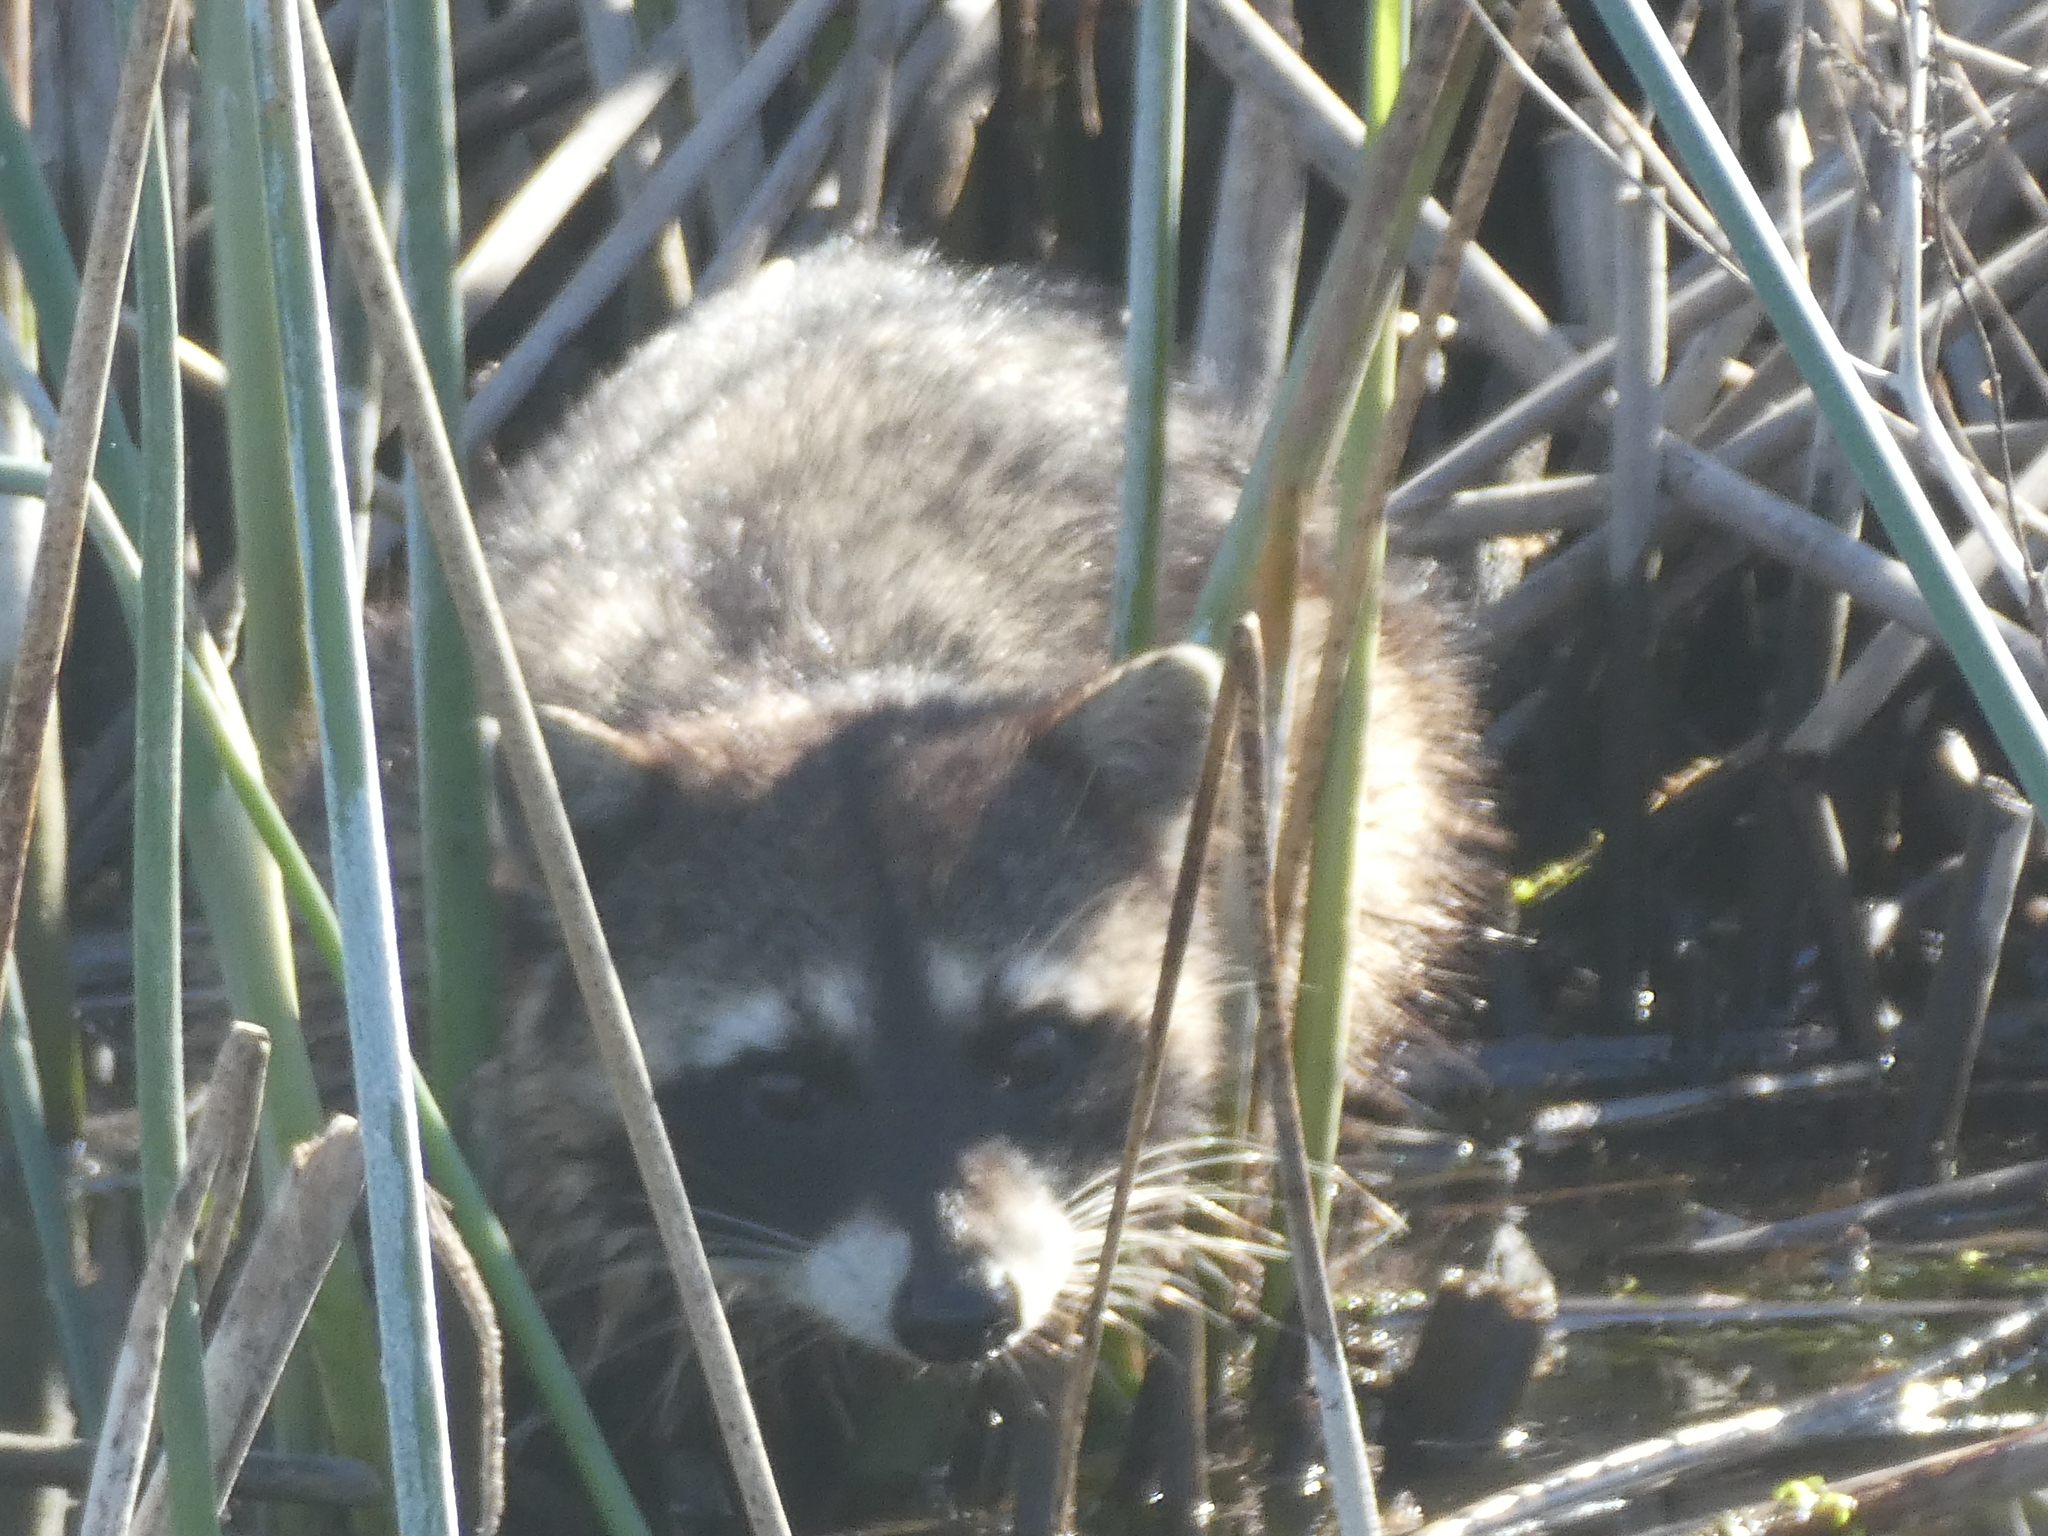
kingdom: Animalia
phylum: Chordata
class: Mammalia
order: Carnivora
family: Procyonidae
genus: Procyon
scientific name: Procyon lotor
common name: Raccoon
